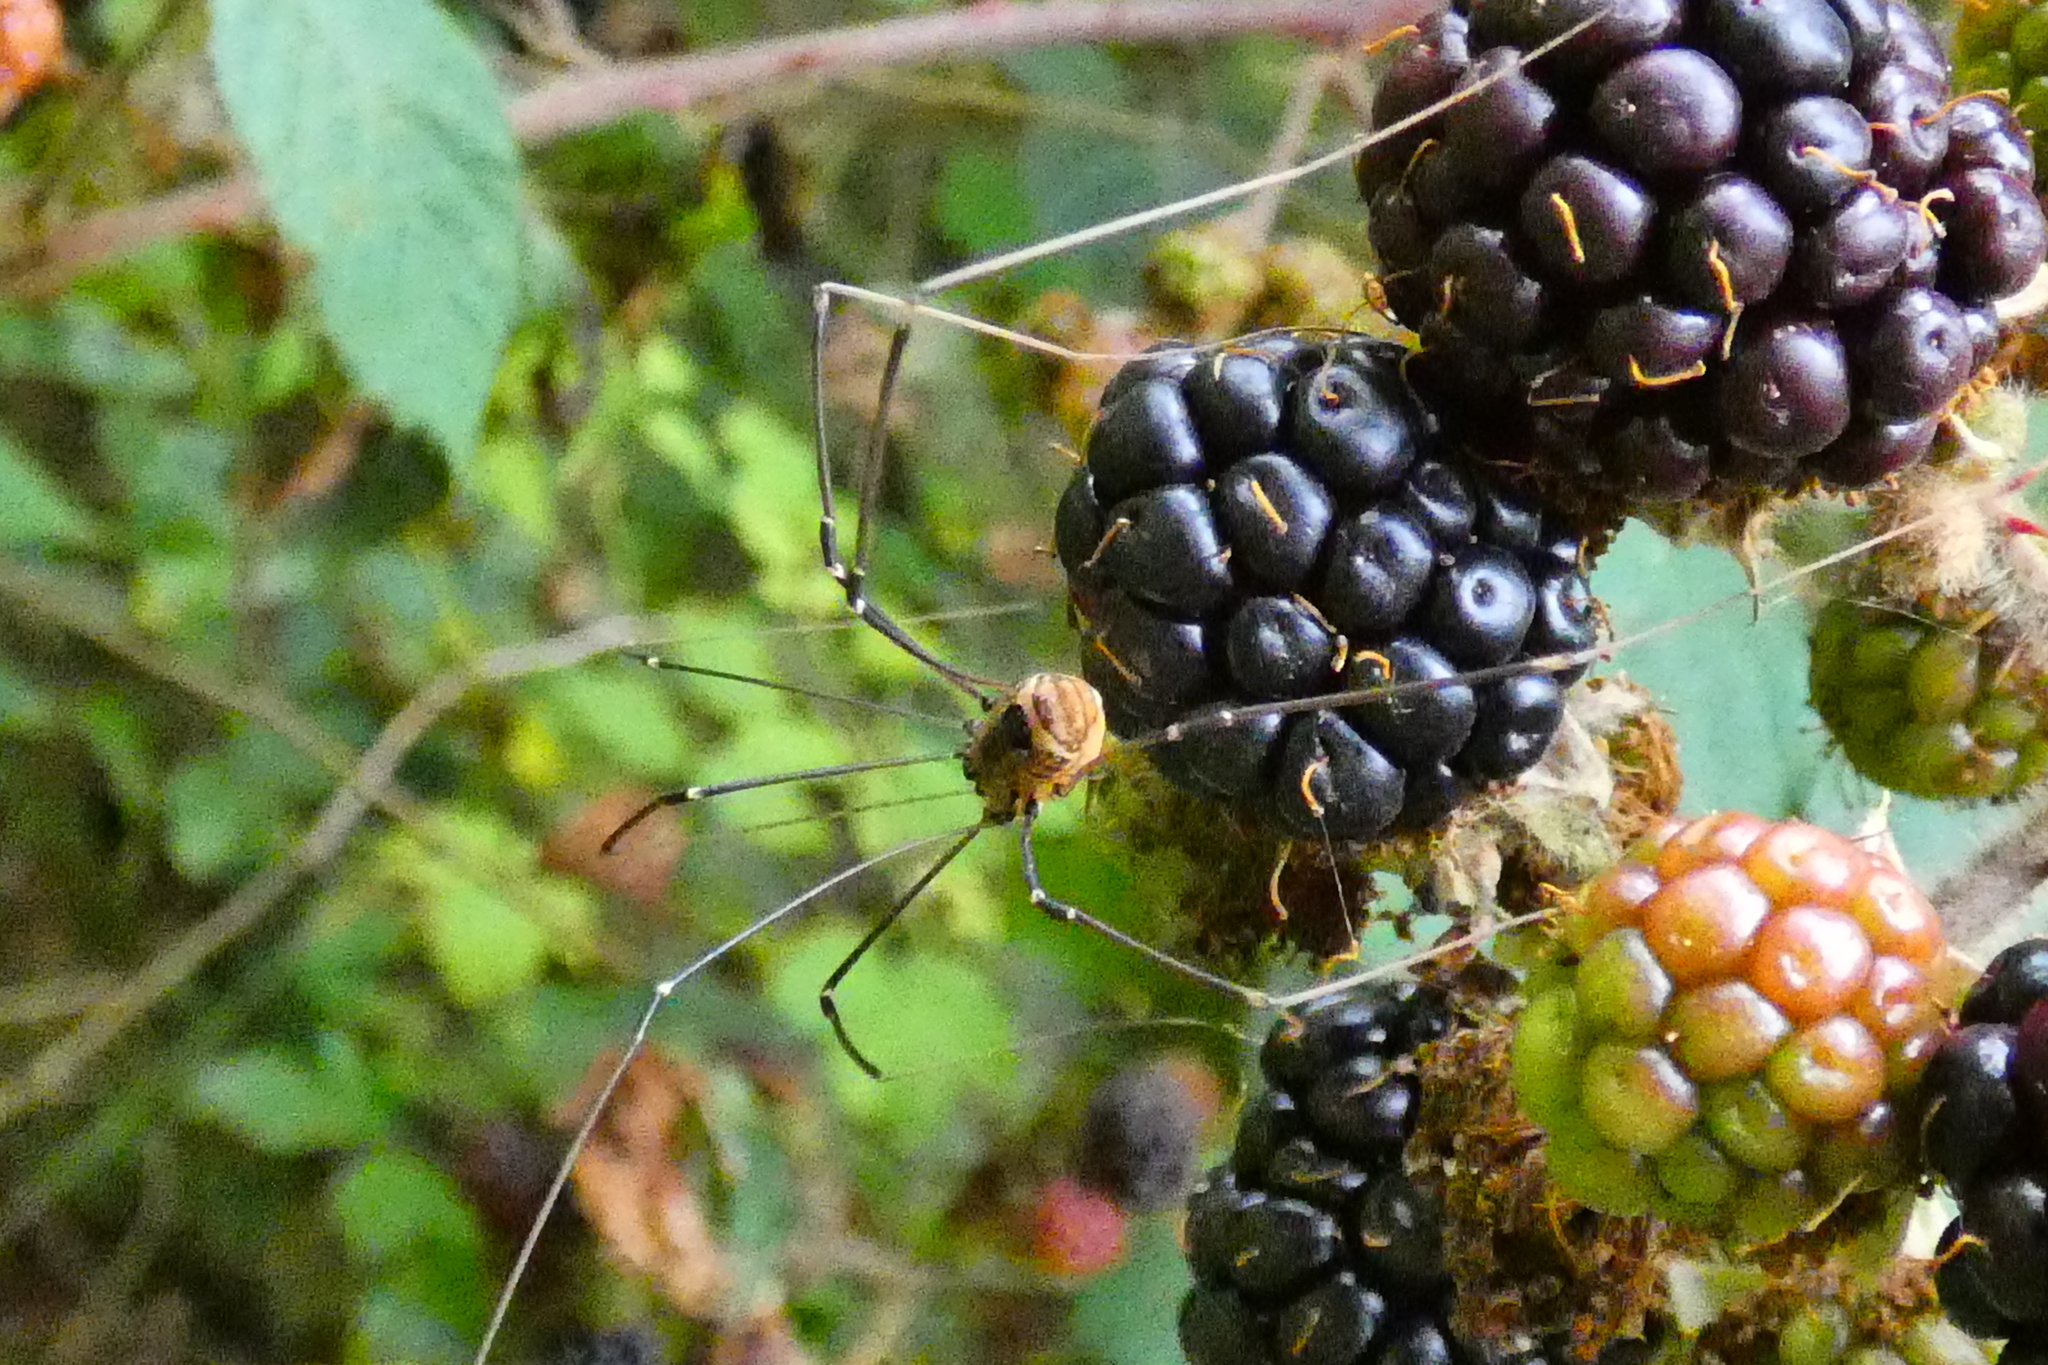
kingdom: Animalia
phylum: Arthropoda
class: Arachnida
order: Opiliones
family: Sclerosomatidae
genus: Leiobunum
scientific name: Leiobunum rotundum
